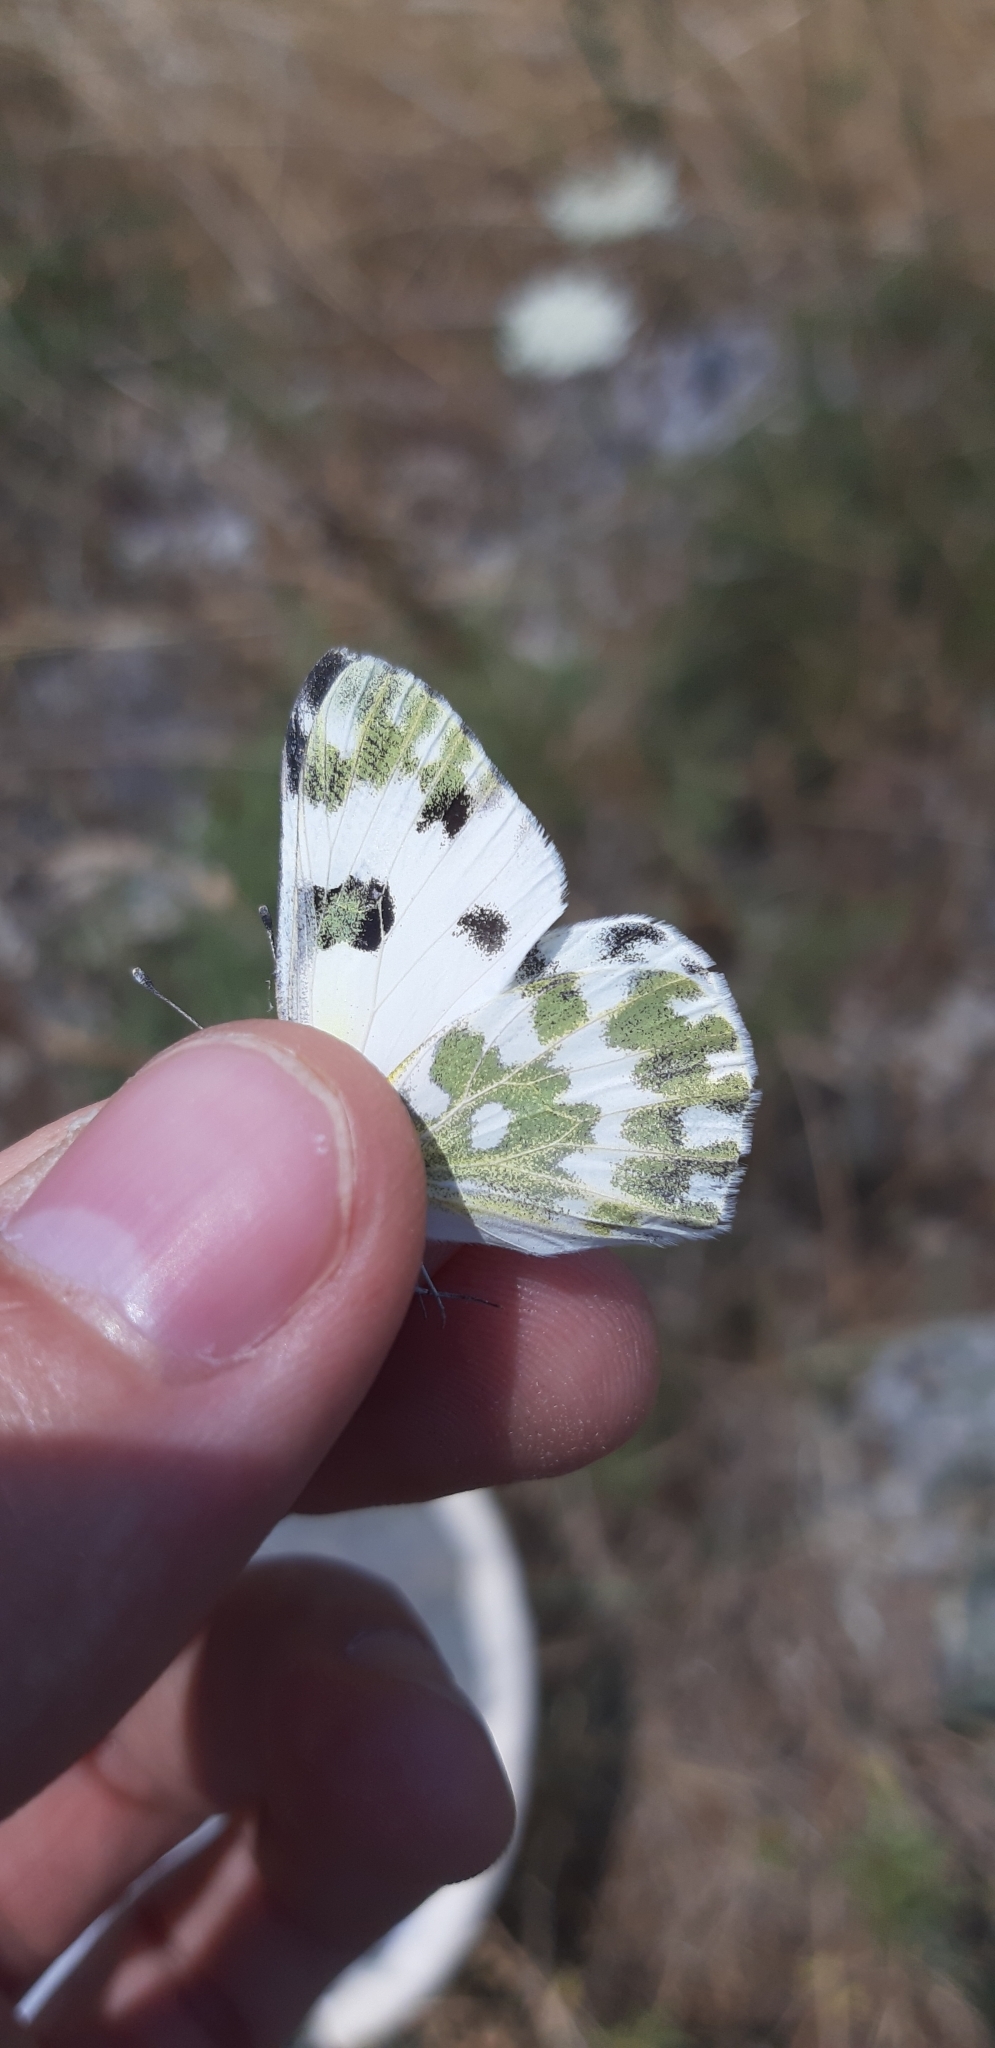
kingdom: Animalia
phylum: Arthropoda
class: Insecta
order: Lepidoptera
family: Pieridae
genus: Pontia
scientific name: Pontia edusa
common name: Eastern bath white
